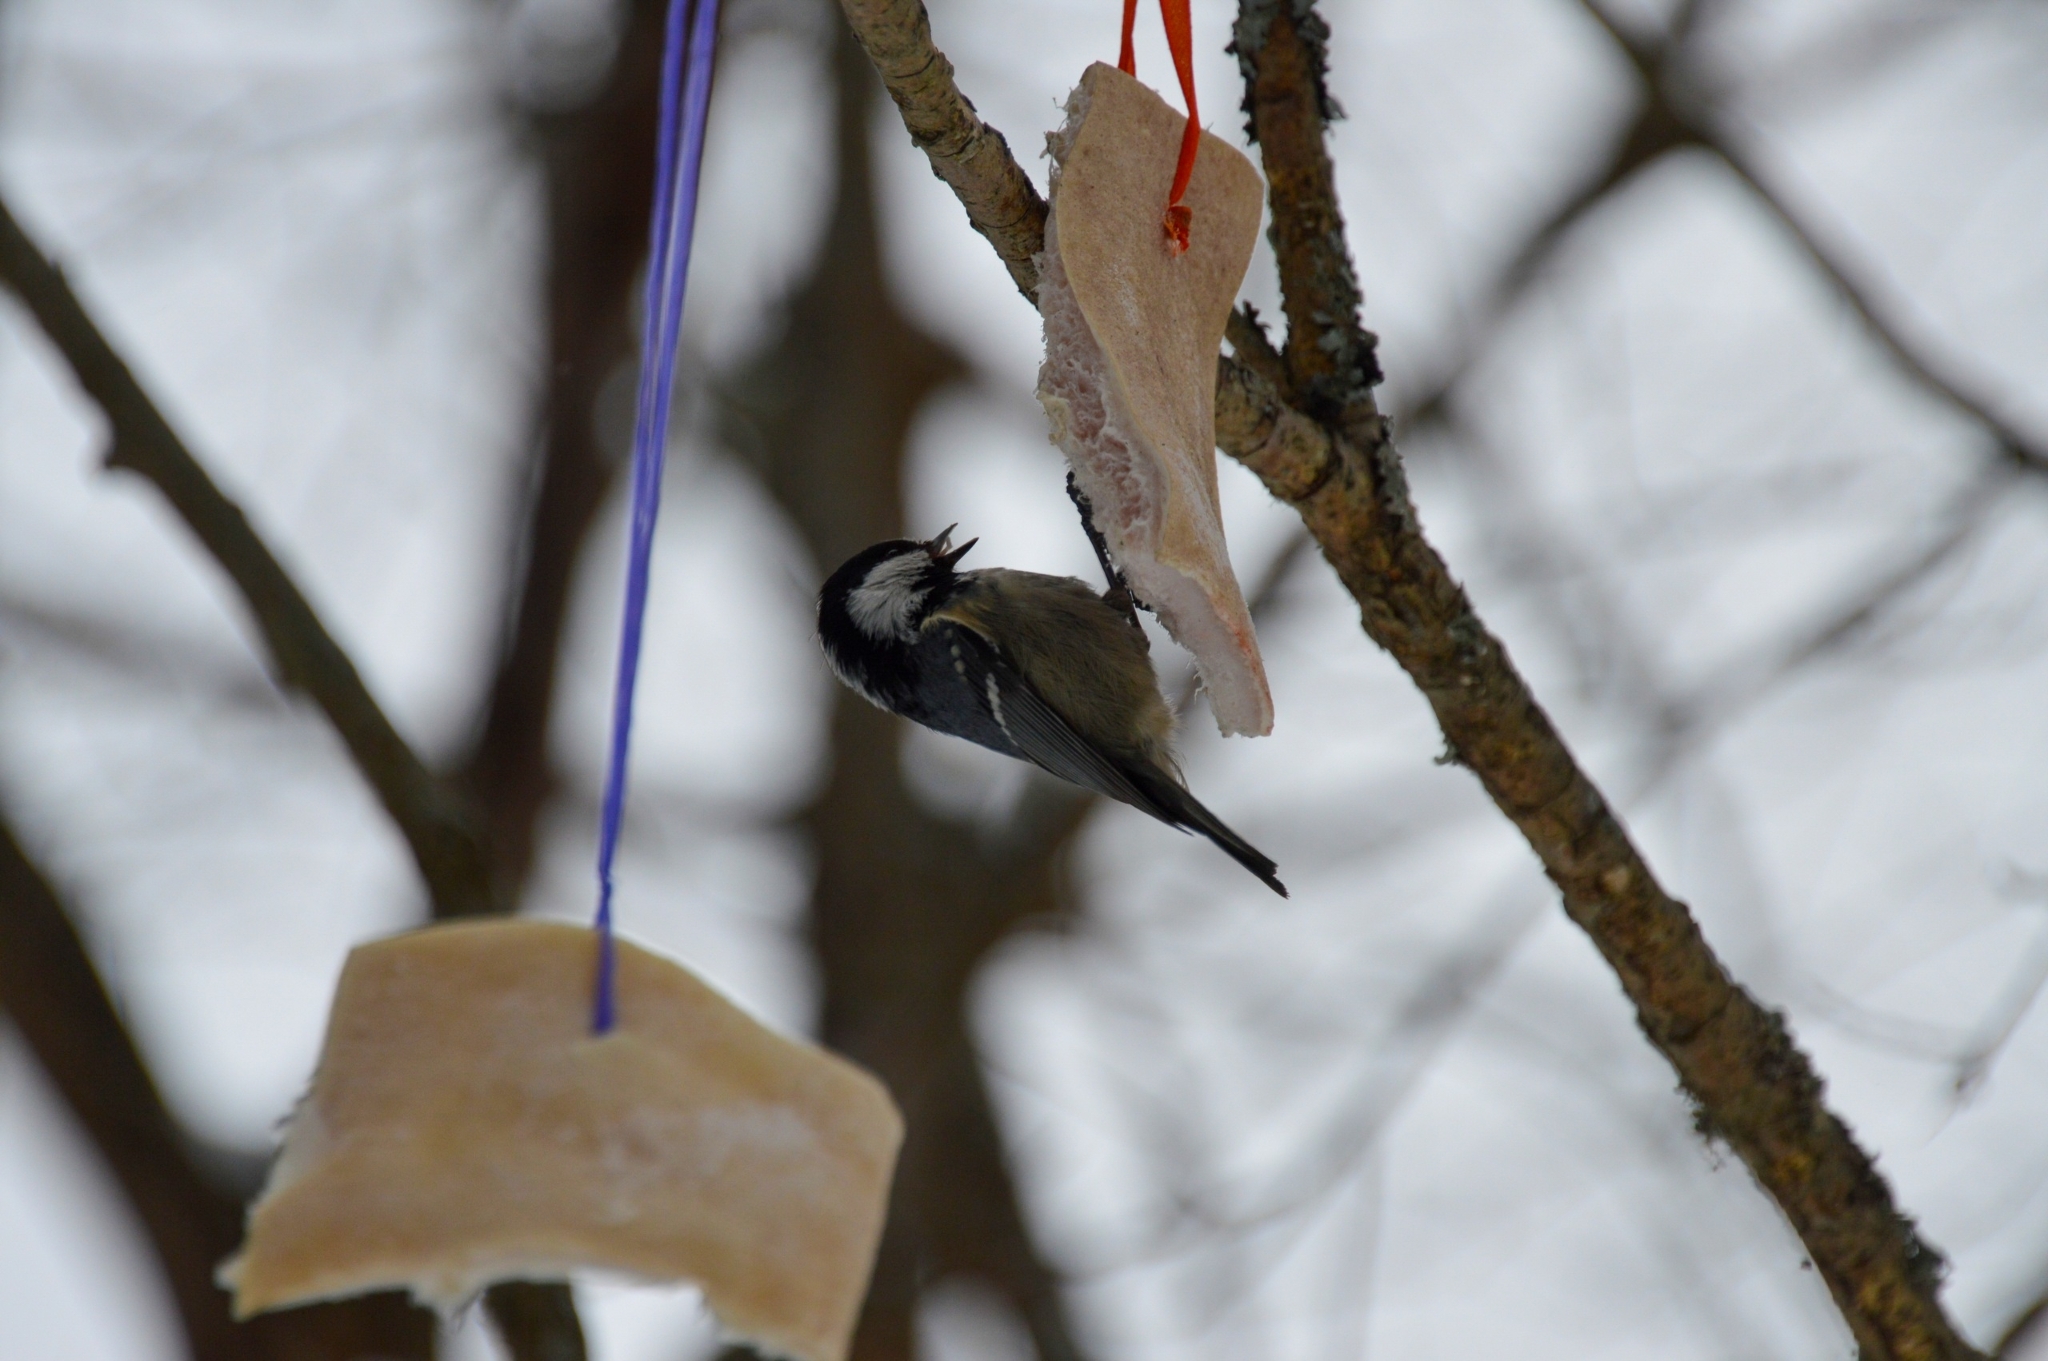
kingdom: Animalia
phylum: Chordata
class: Aves
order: Passeriformes
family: Paridae
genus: Periparus
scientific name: Periparus ater
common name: Coal tit
